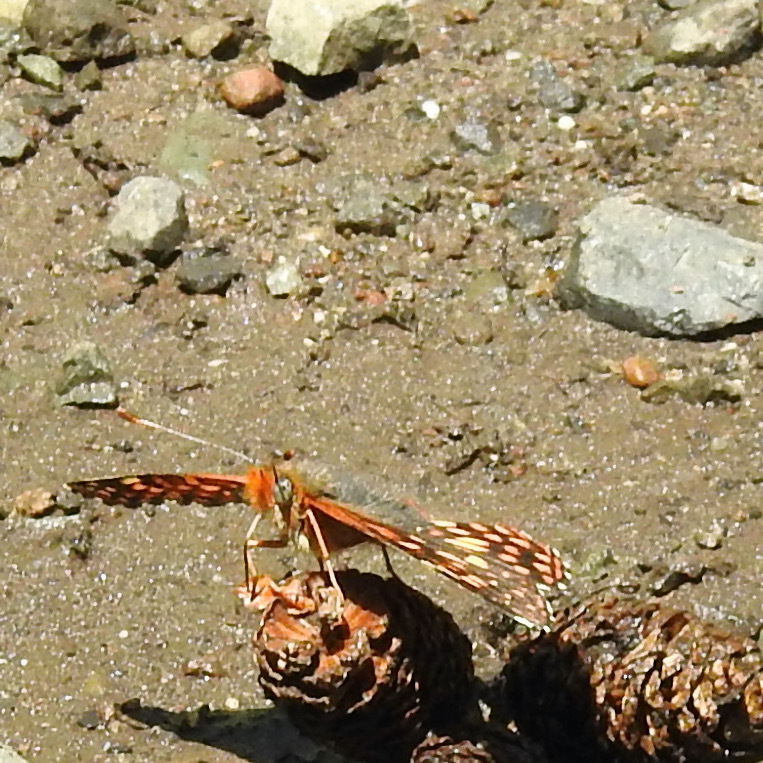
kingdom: Animalia
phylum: Arthropoda
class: Insecta
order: Lepidoptera
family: Nymphalidae
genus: Chlosyne
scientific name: Chlosyne palla
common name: Northern checkerspot
